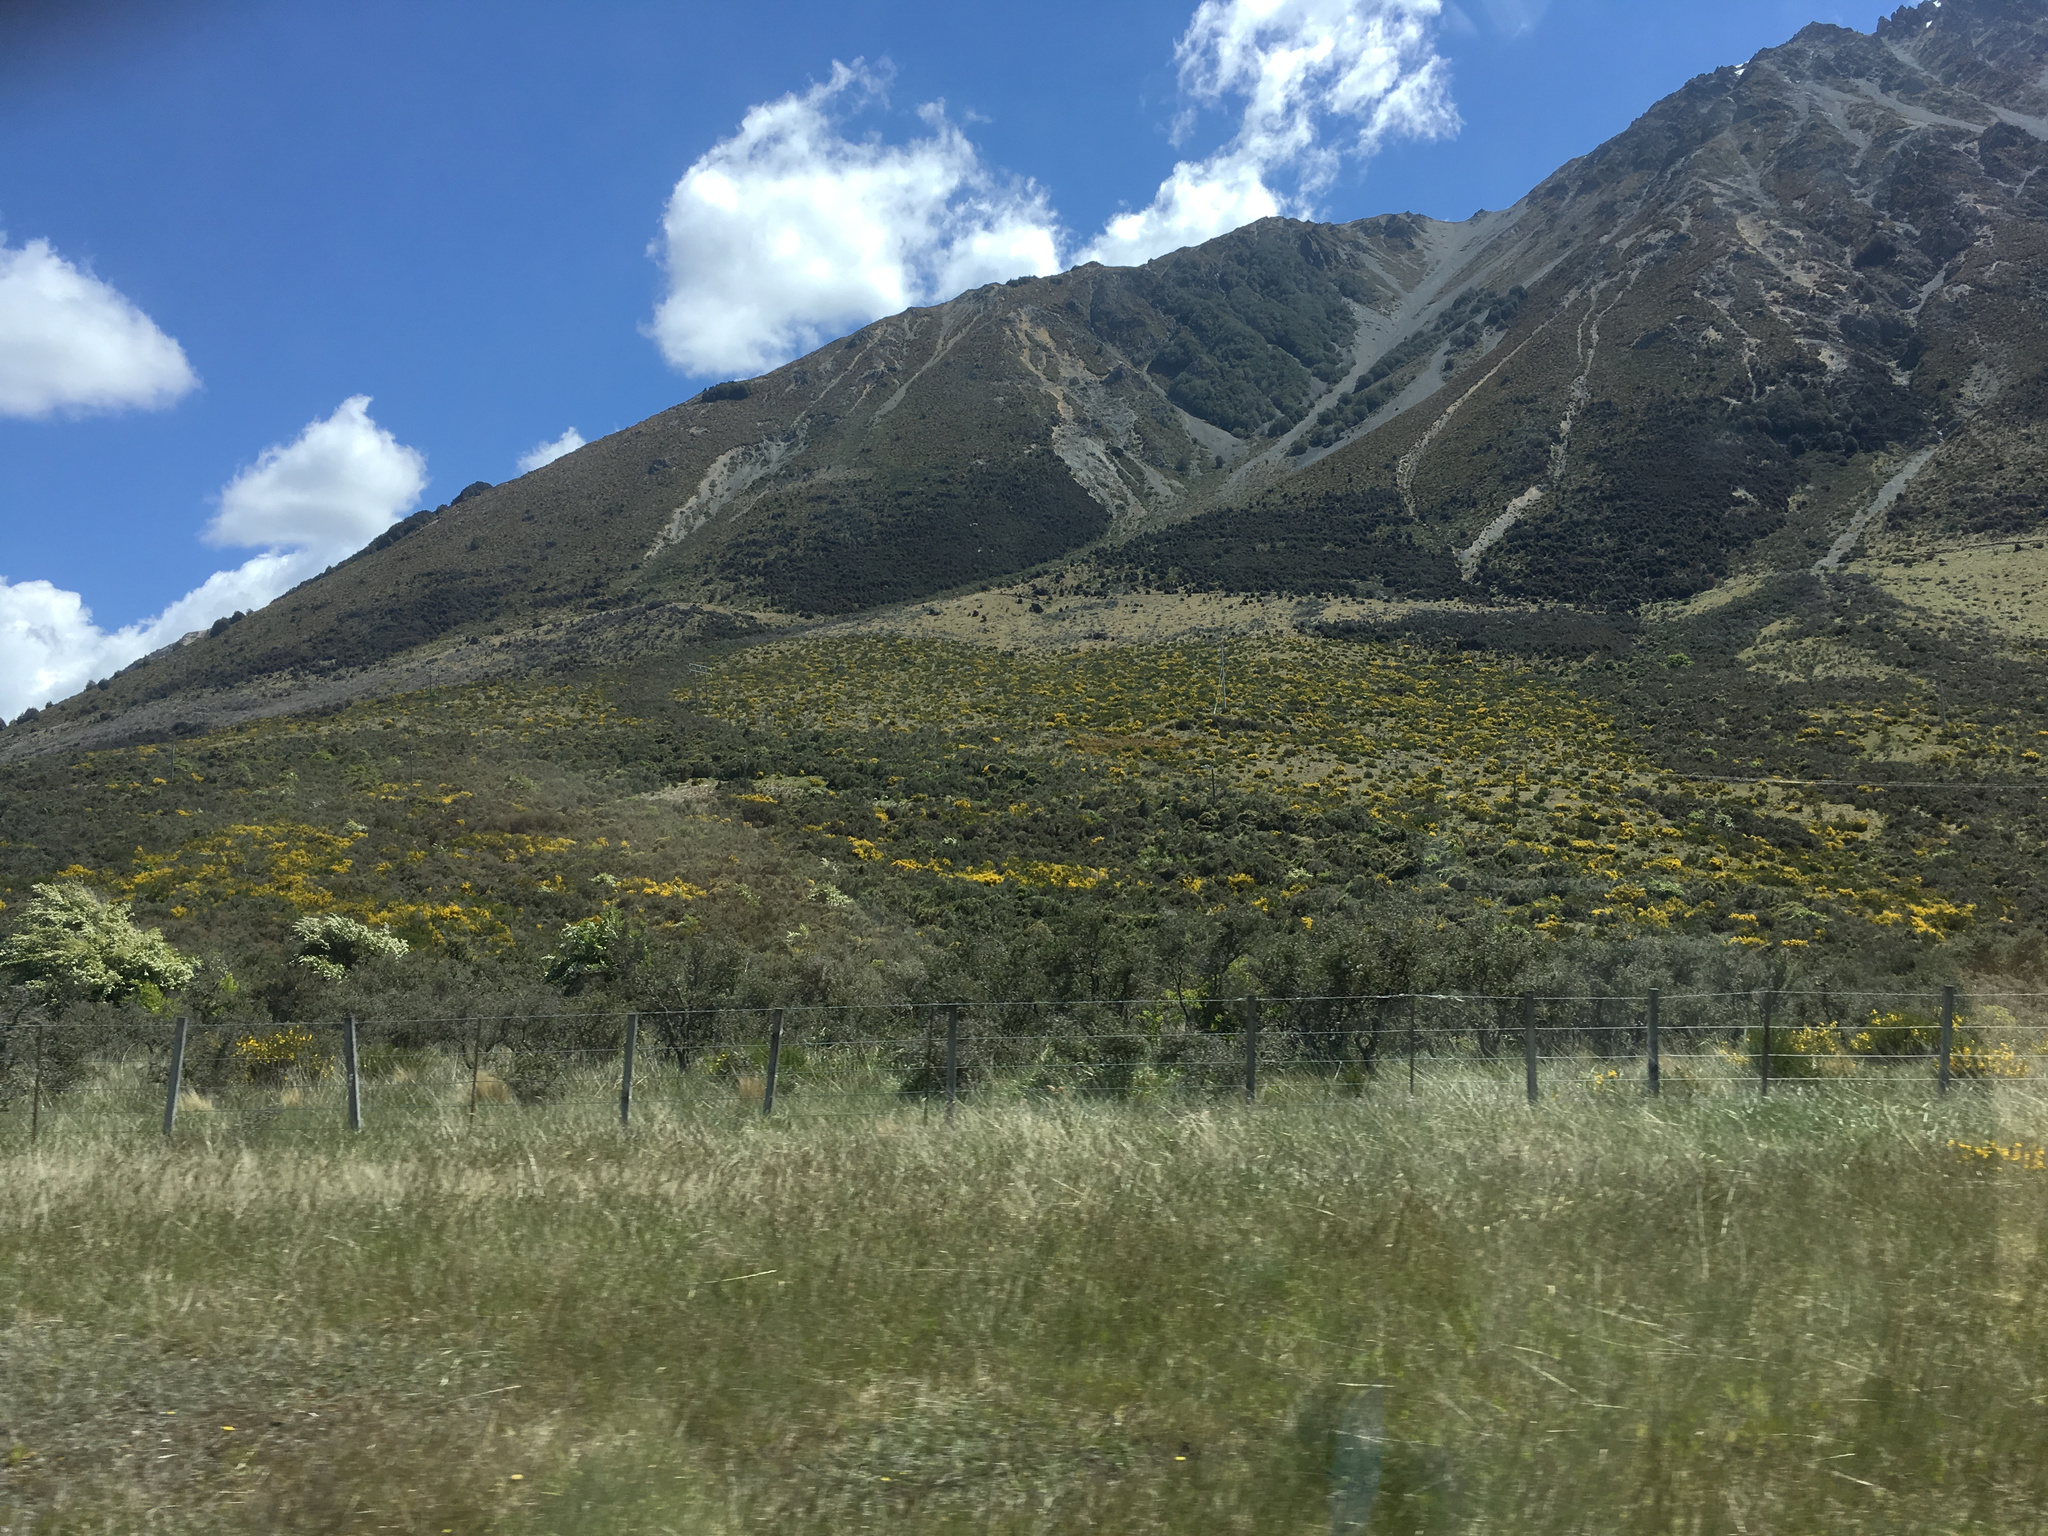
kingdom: Plantae
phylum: Tracheophyta
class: Magnoliopsida
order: Fabales
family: Fabaceae
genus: Cytisus
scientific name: Cytisus scoparius
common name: Scotch broom
